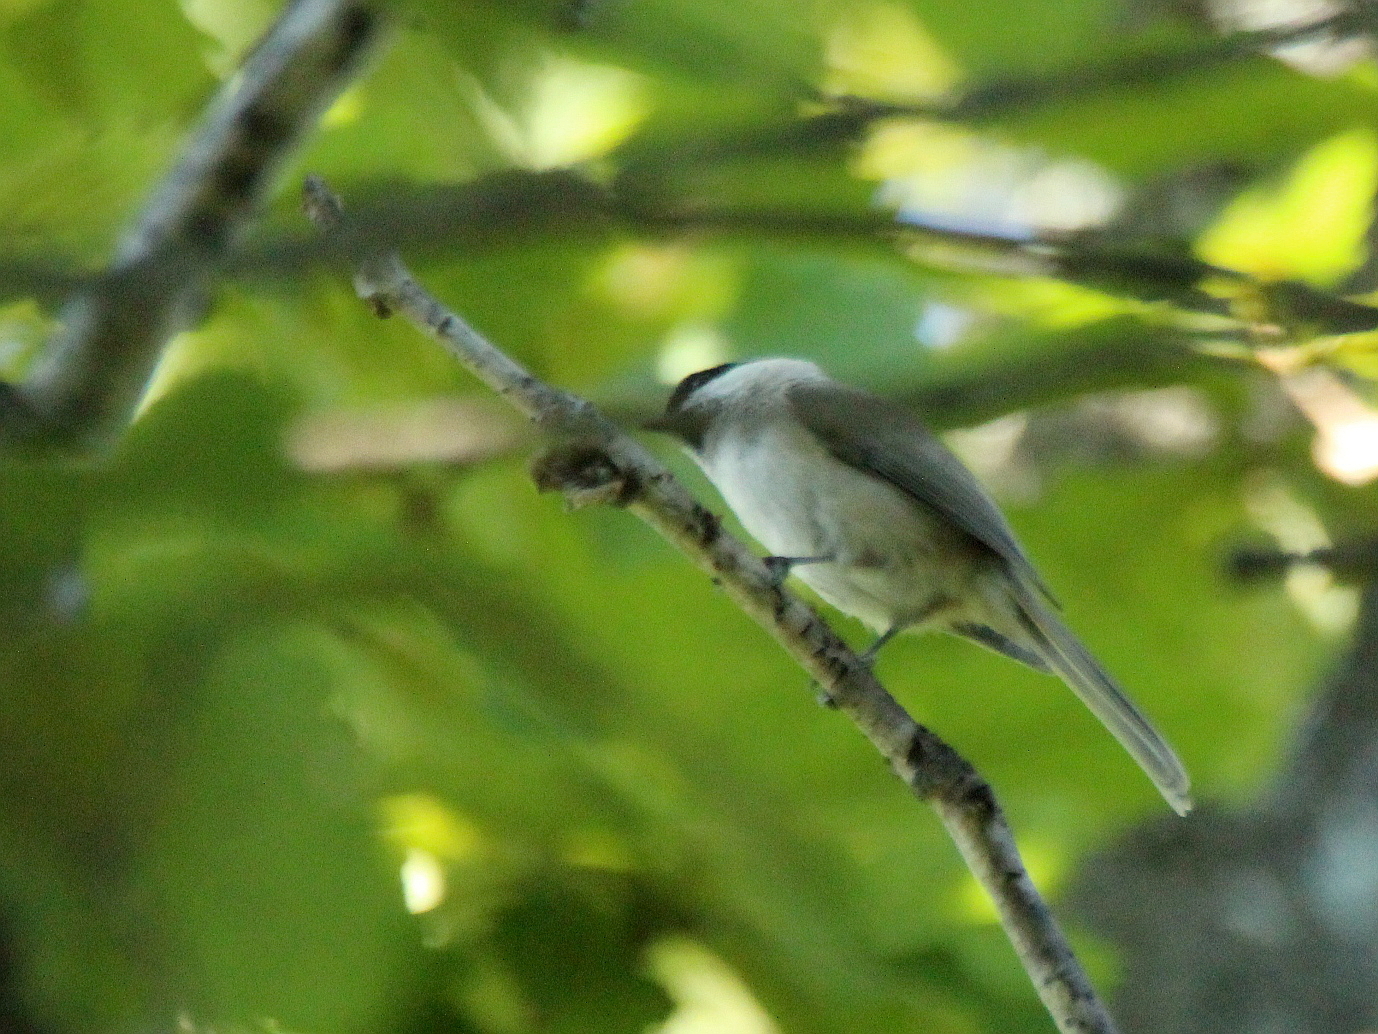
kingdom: Animalia
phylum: Chordata
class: Aves
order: Passeriformes
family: Paridae
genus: Poecile
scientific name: Poecile palustris
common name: Marsh tit
